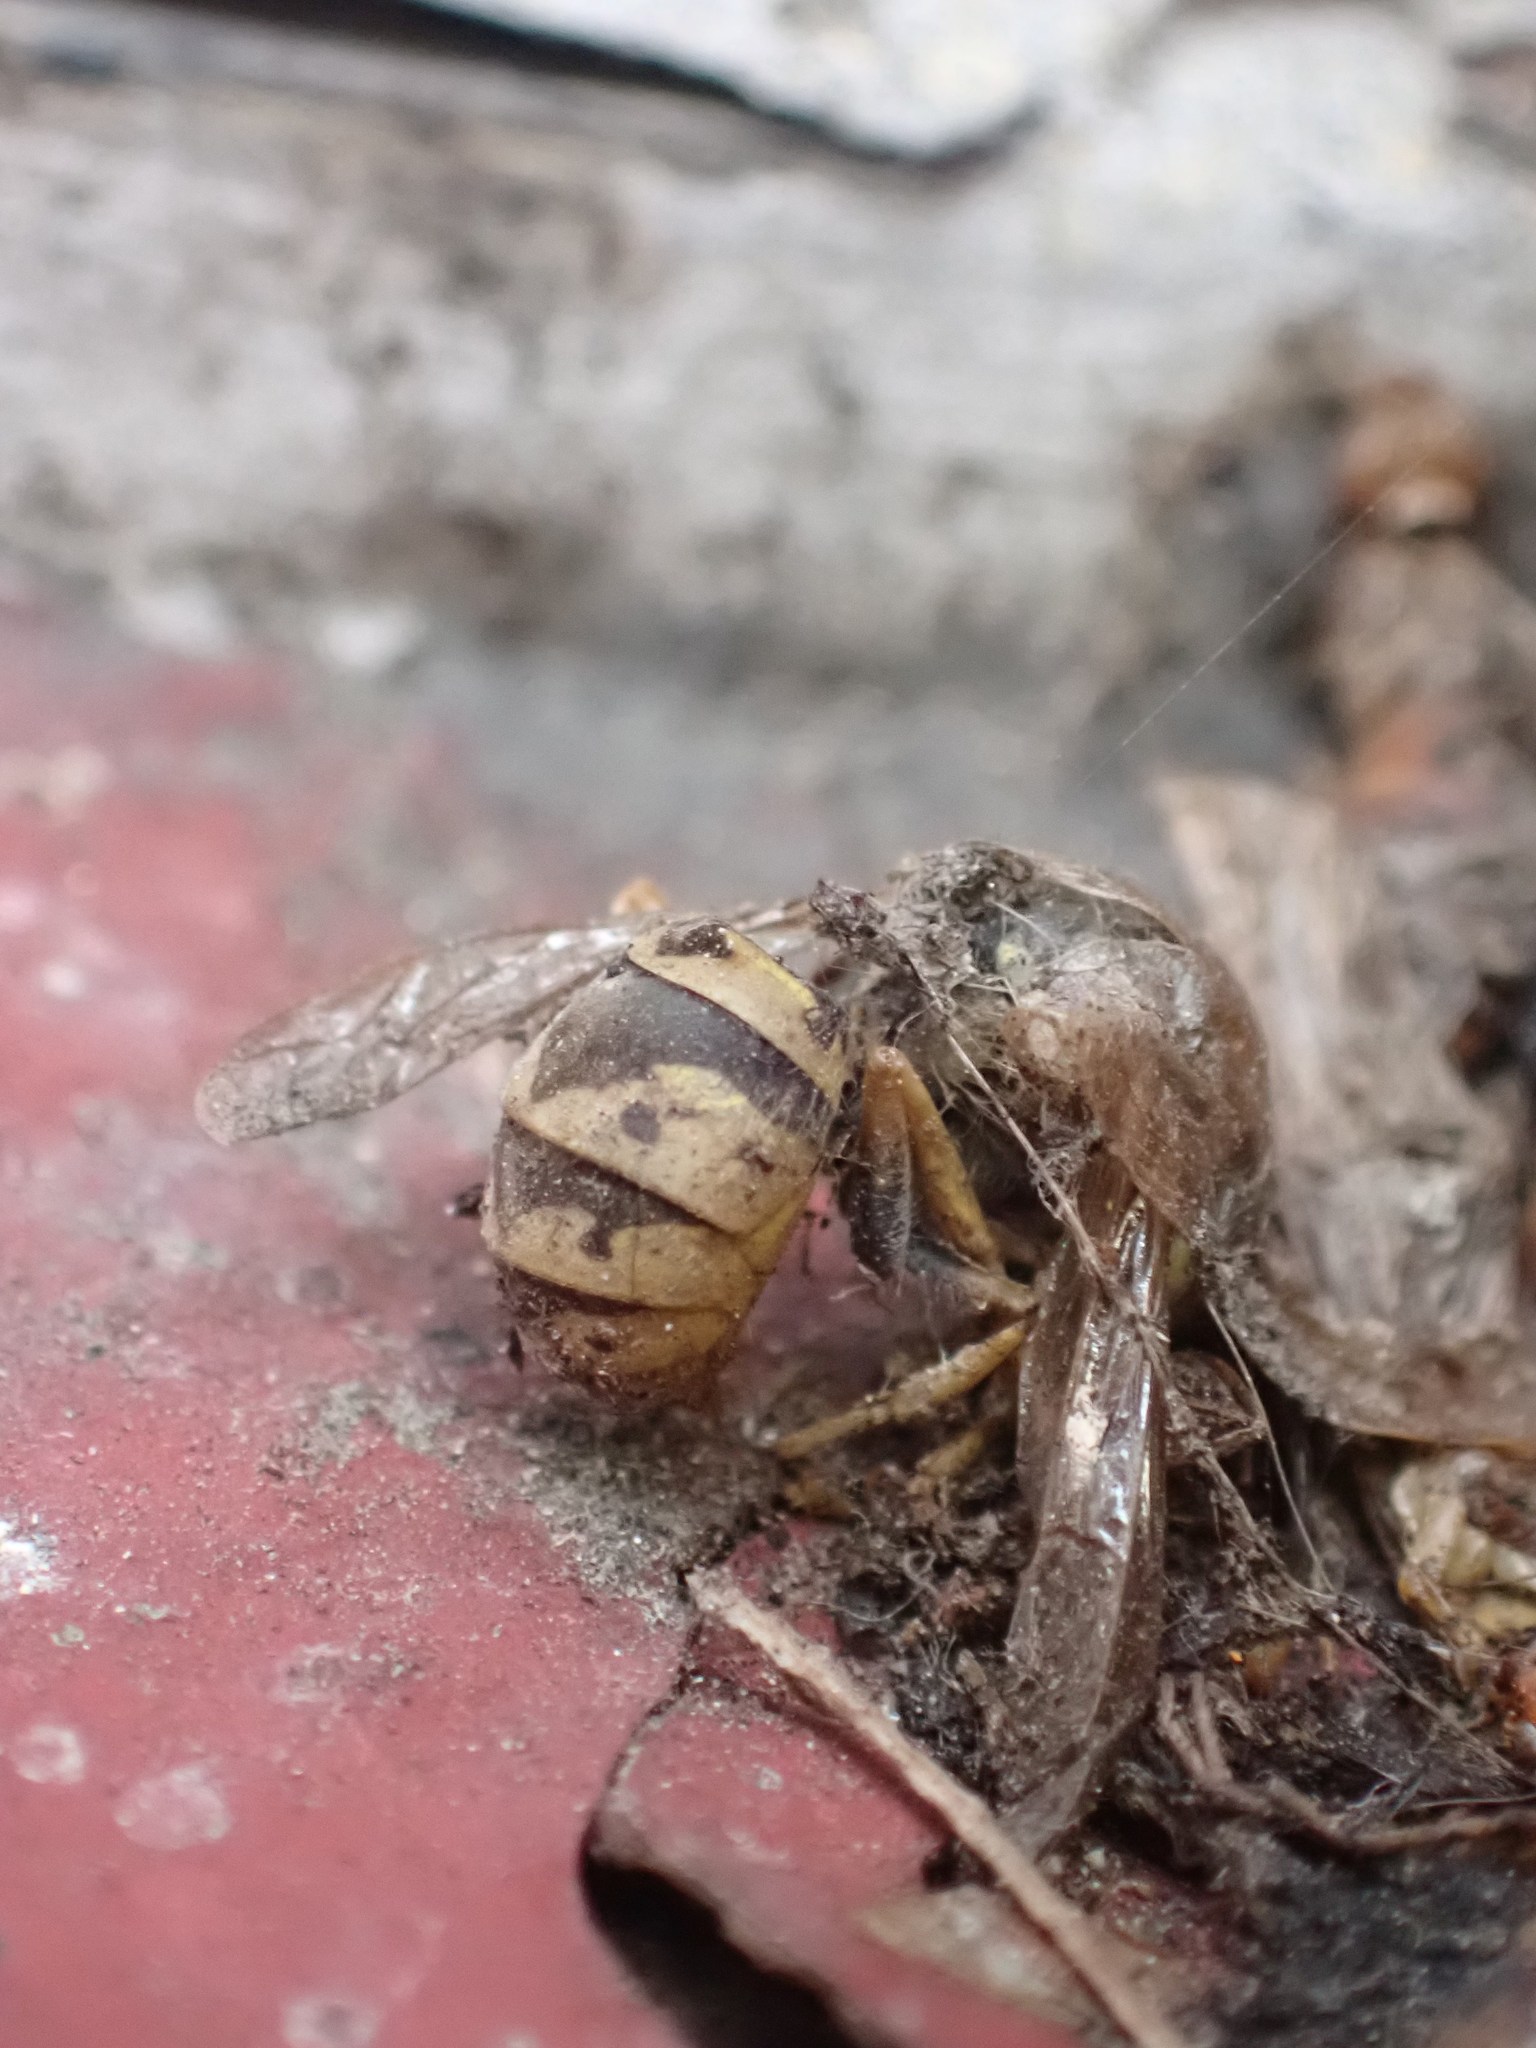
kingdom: Animalia
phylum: Arthropoda
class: Insecta
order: Hymenoptera
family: Vespidae
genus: Vespula
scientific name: Vespula
